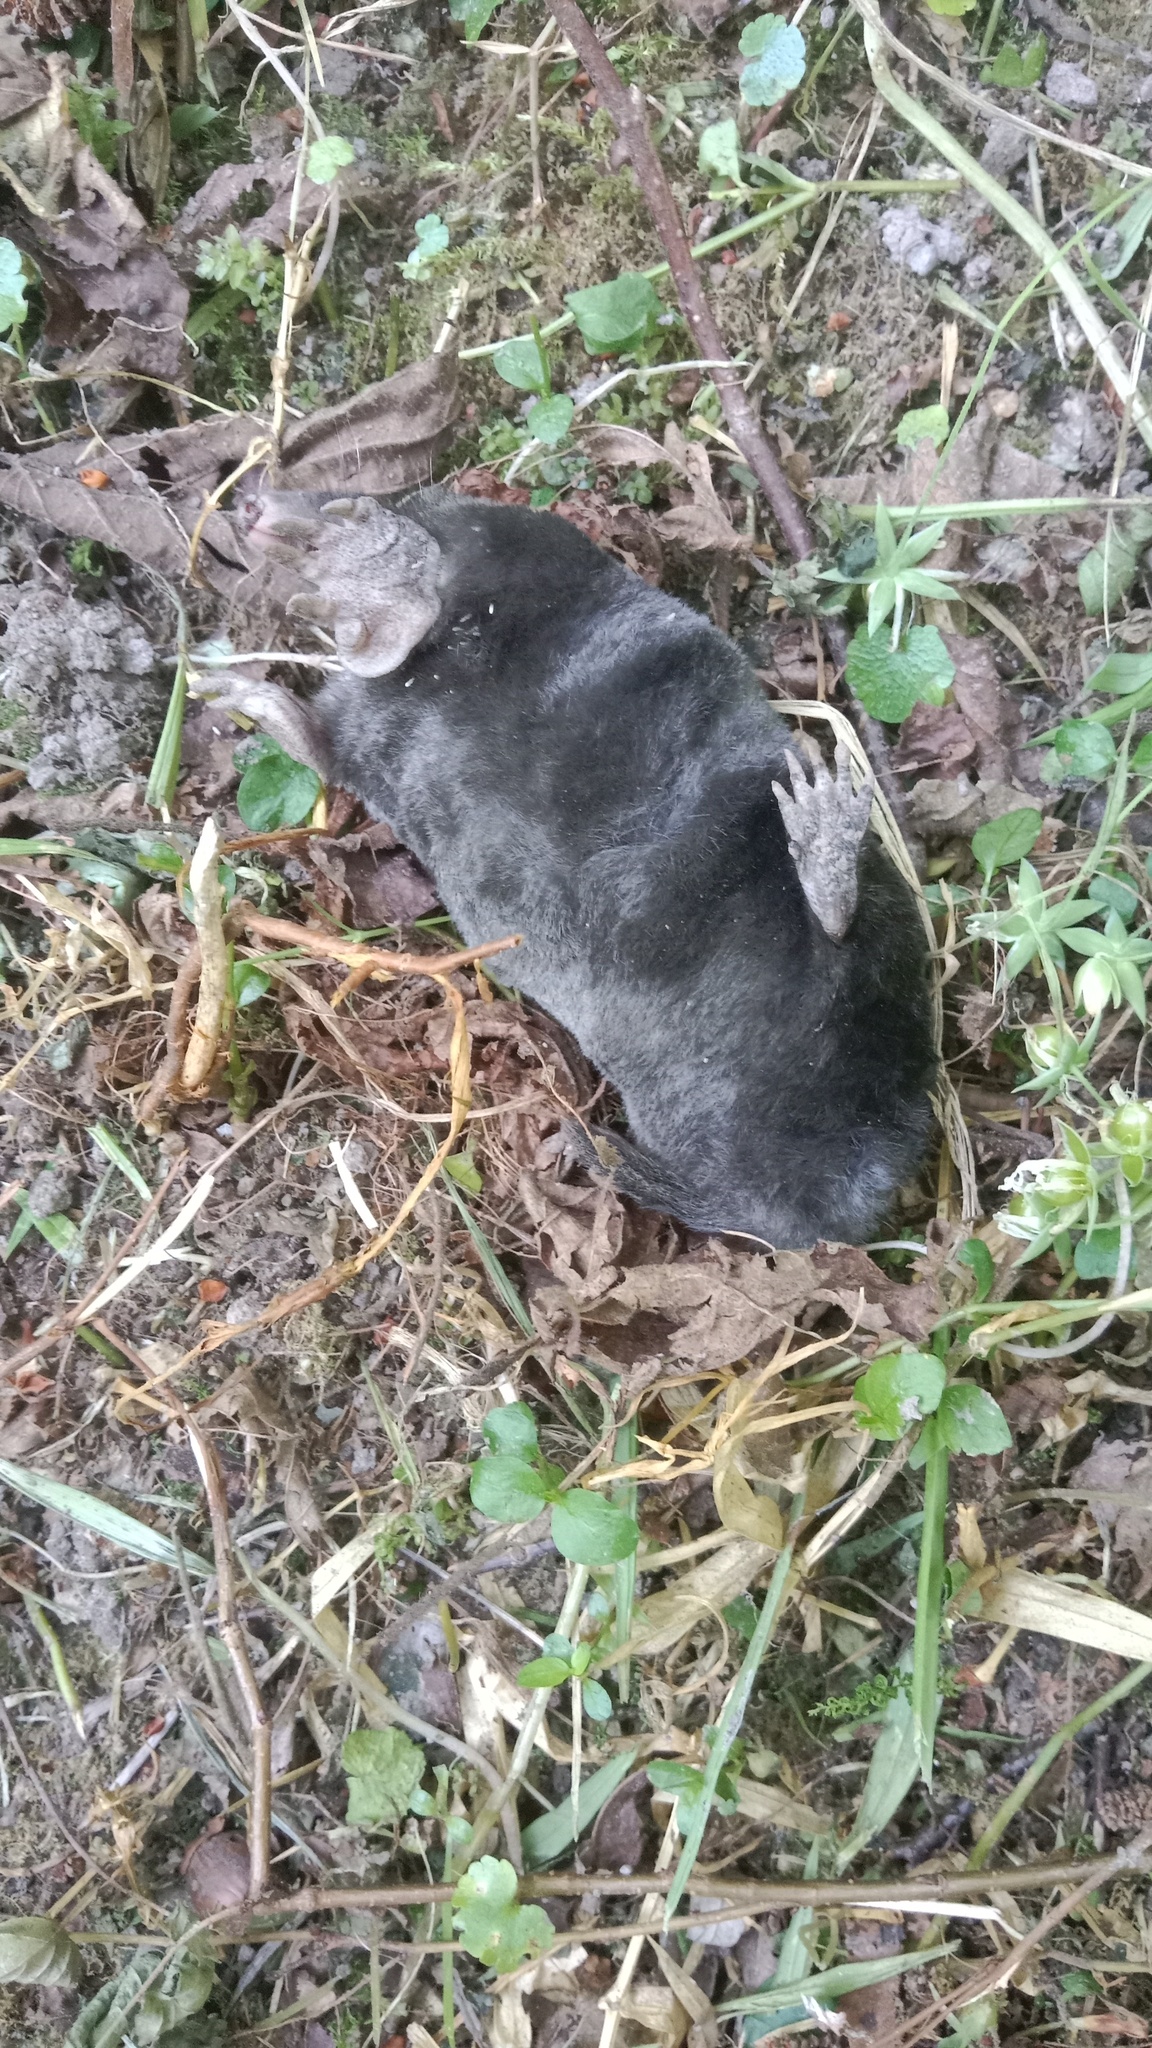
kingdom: Animalia
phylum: Chordata
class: Mammalia
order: Soricomorpha
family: Talpidae
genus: Talpa
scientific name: Talpa europaea
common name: European mole
